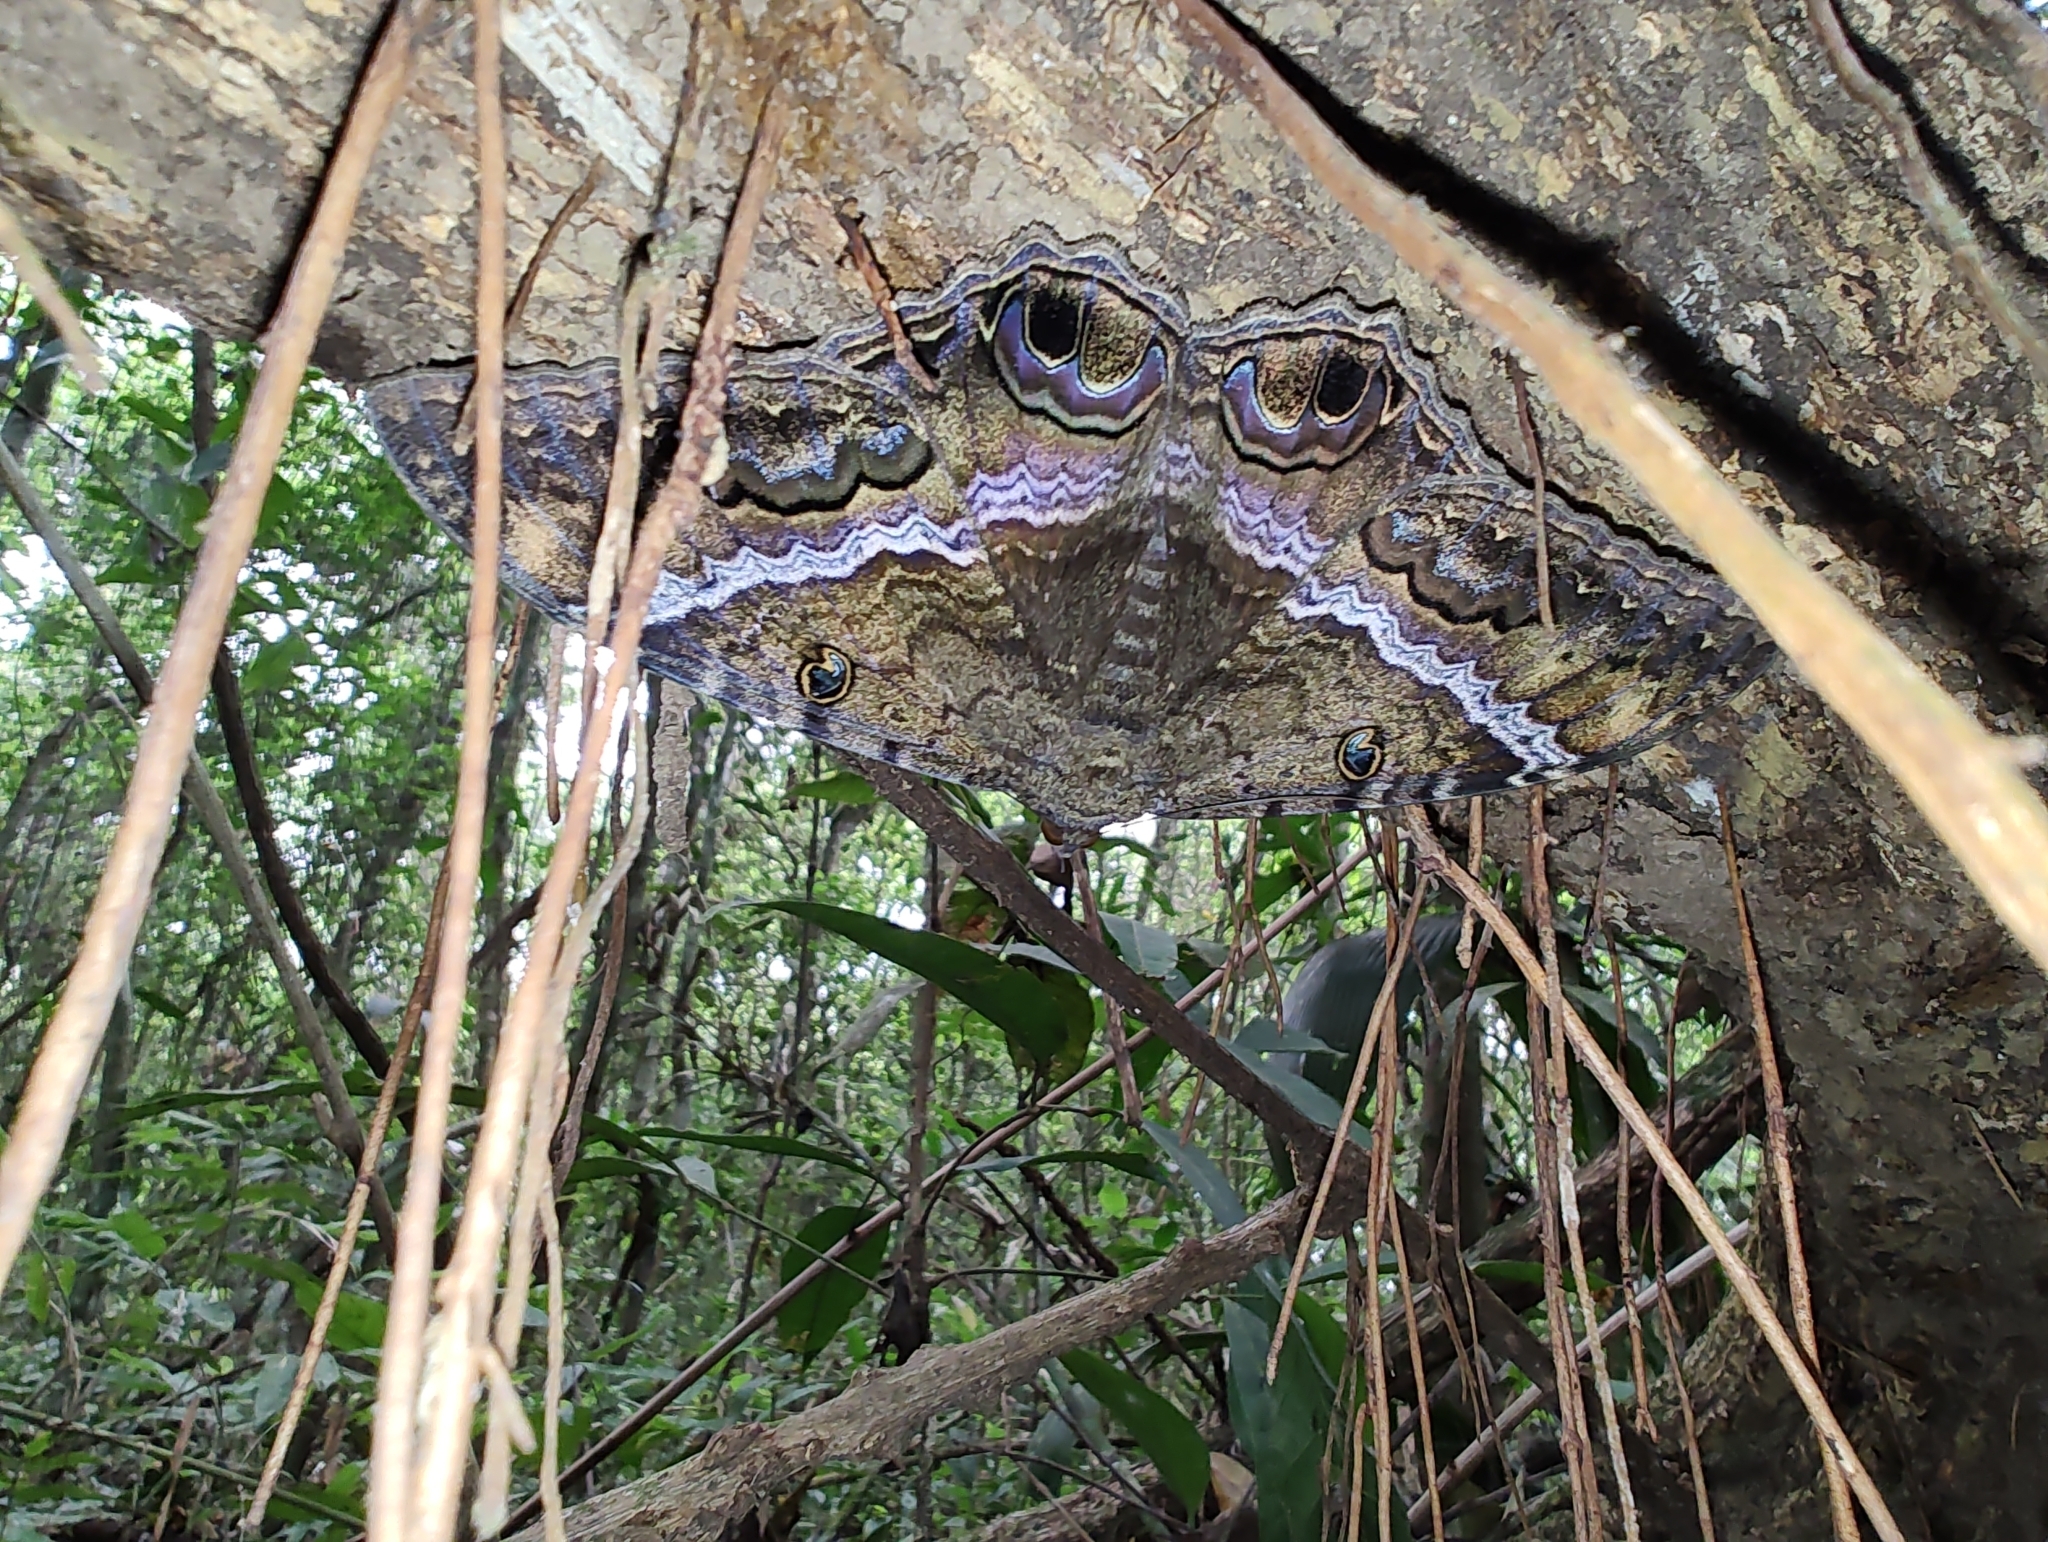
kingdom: Animalia
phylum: Arthropoda
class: Insecta
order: Lepidoptera
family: Erebidae
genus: Ascalapha
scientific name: Ascalapha odorata
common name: Black witch
